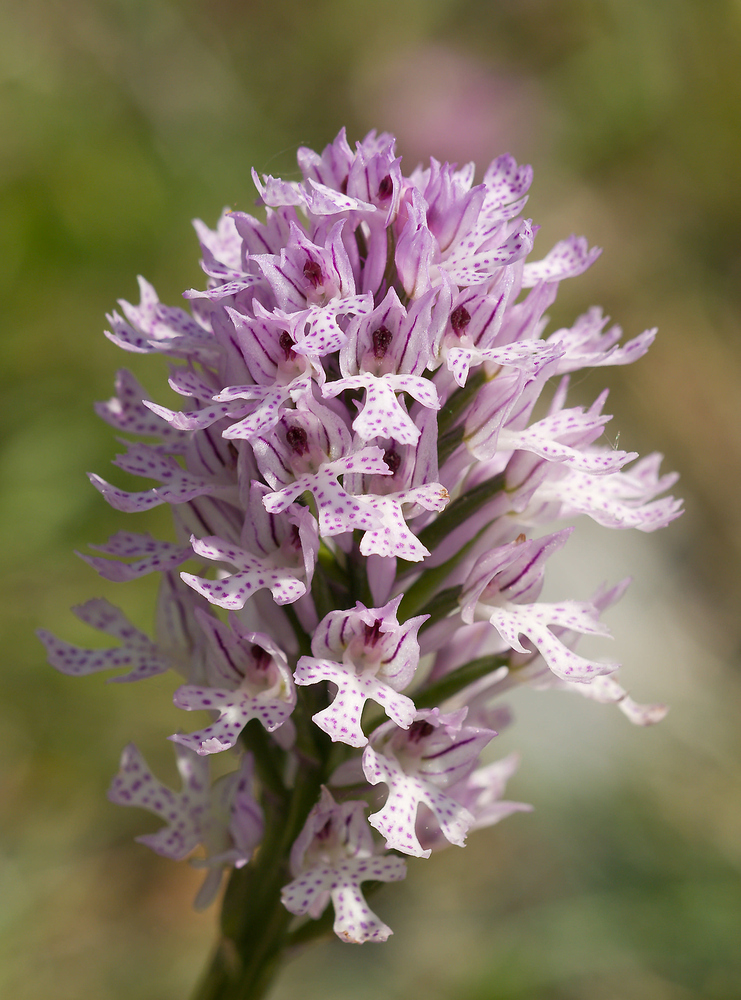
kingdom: Plantae
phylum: Tracheophyta
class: Liliopsida
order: Asparagales
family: Orchidaceae
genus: Neotinea
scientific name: Neotinea tridentata
